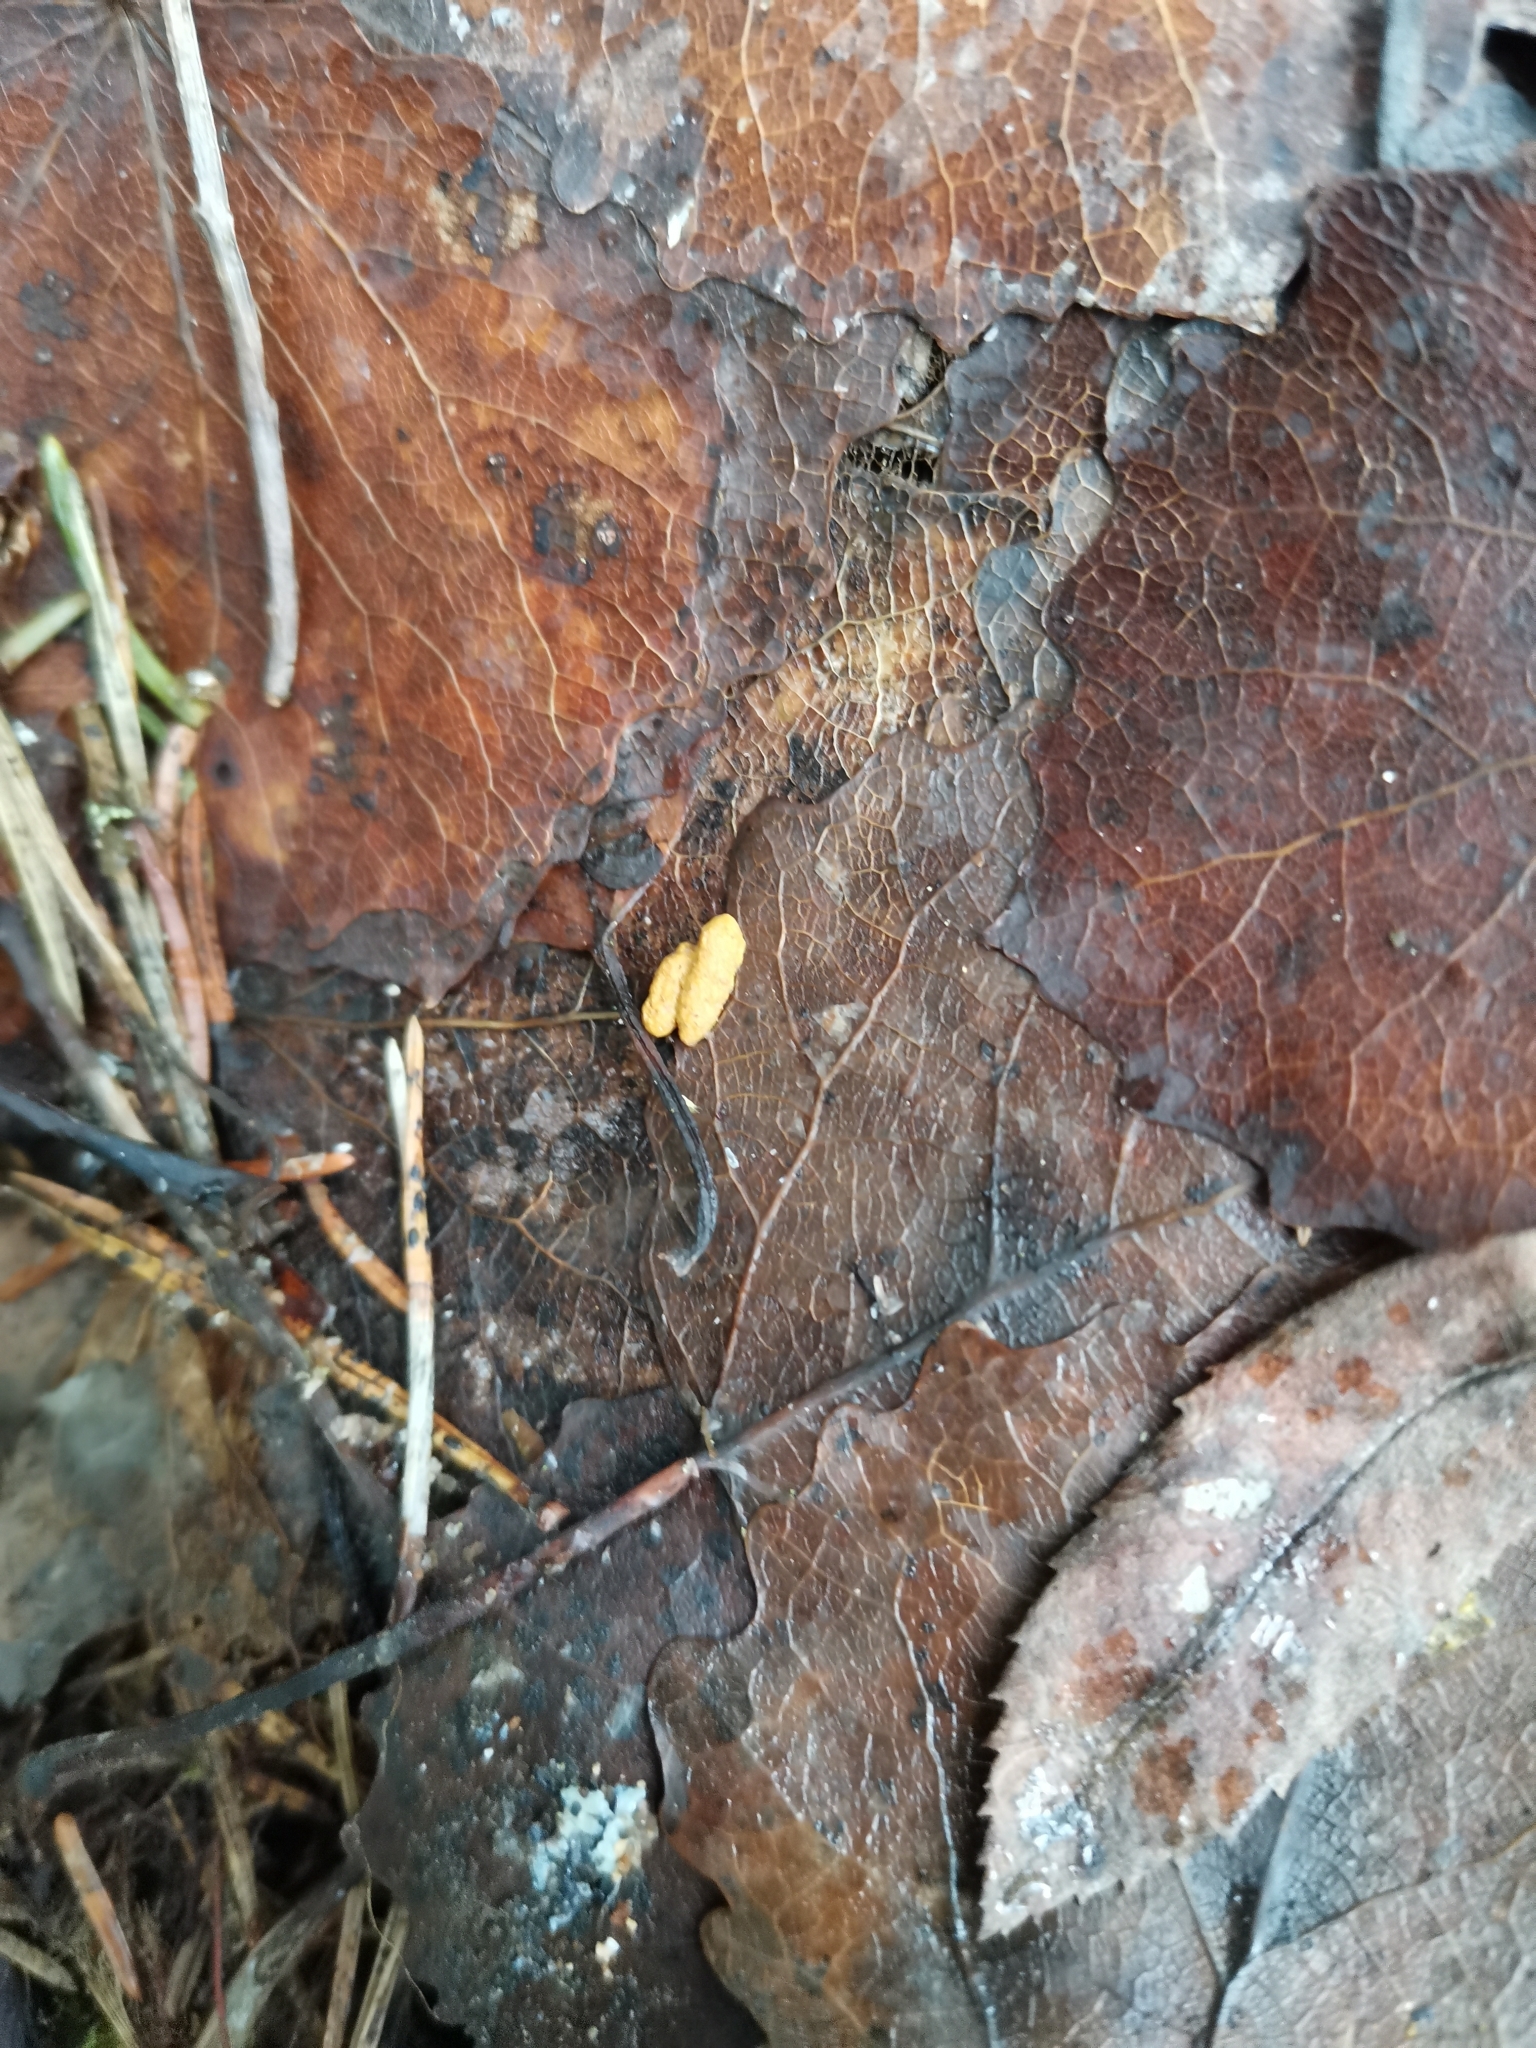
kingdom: Animalia
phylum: Chordata
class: Mammalia
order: Rodentia
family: Sciuridae
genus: Pteromys
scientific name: Pteromys volans
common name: Siberian flying squirrel
